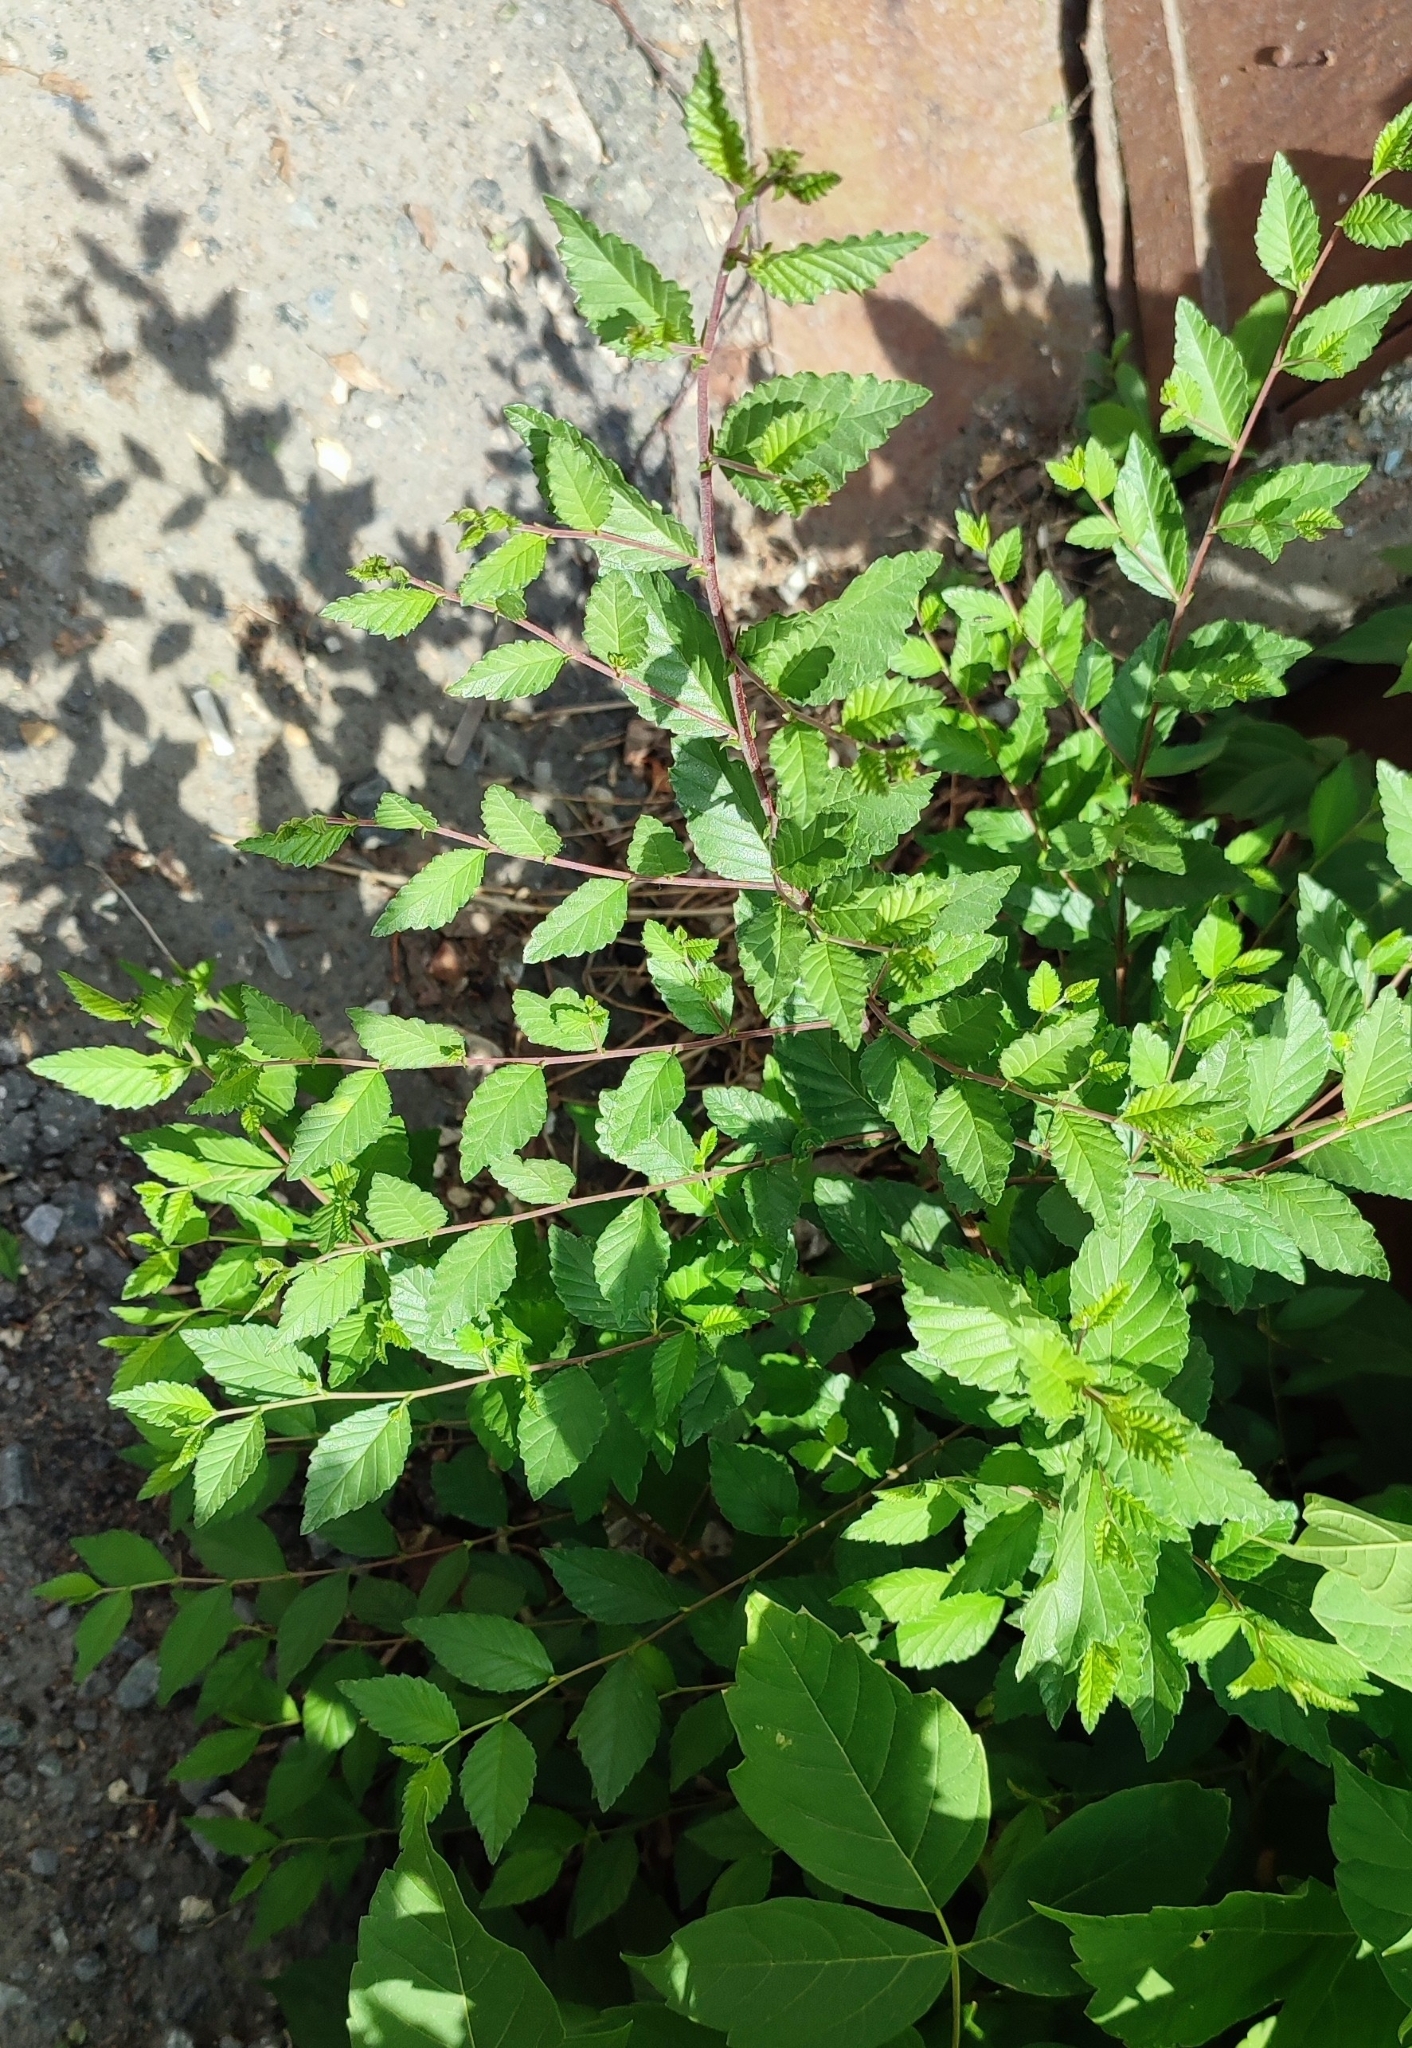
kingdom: Plantae
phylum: Tracheophyta
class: Magnoliopsida
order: Rosales
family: Ulmaceae
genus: Ulmus
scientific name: Ulmus pumila
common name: Siberian elm
